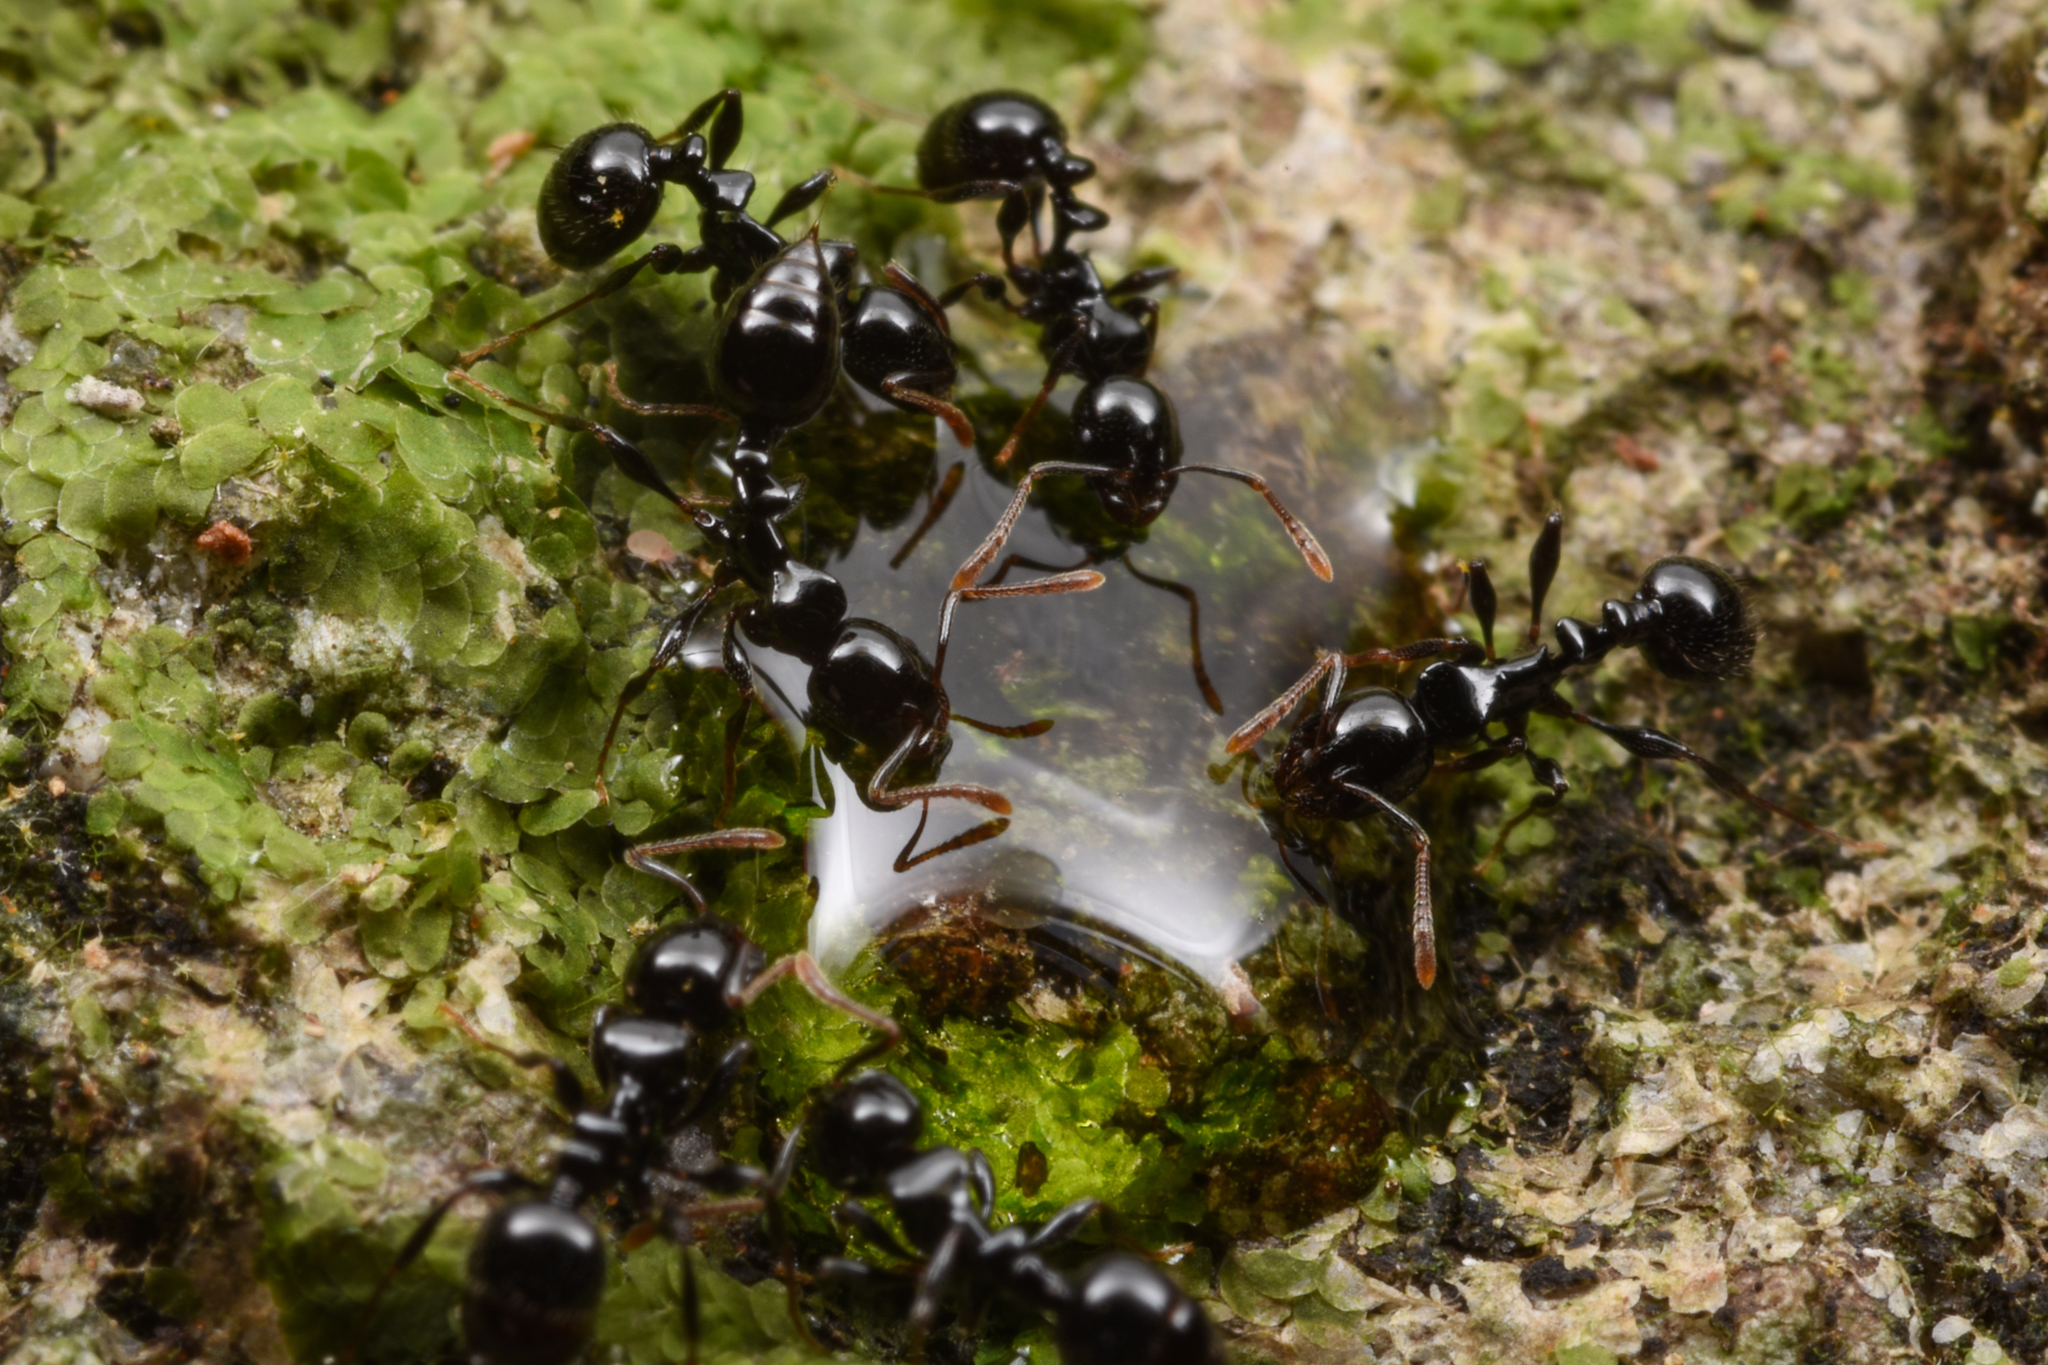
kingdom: Animalia
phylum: Arthropoda
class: Insecta
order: Hymenoptera
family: Formicidae
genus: Chelaner
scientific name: Chelaner
